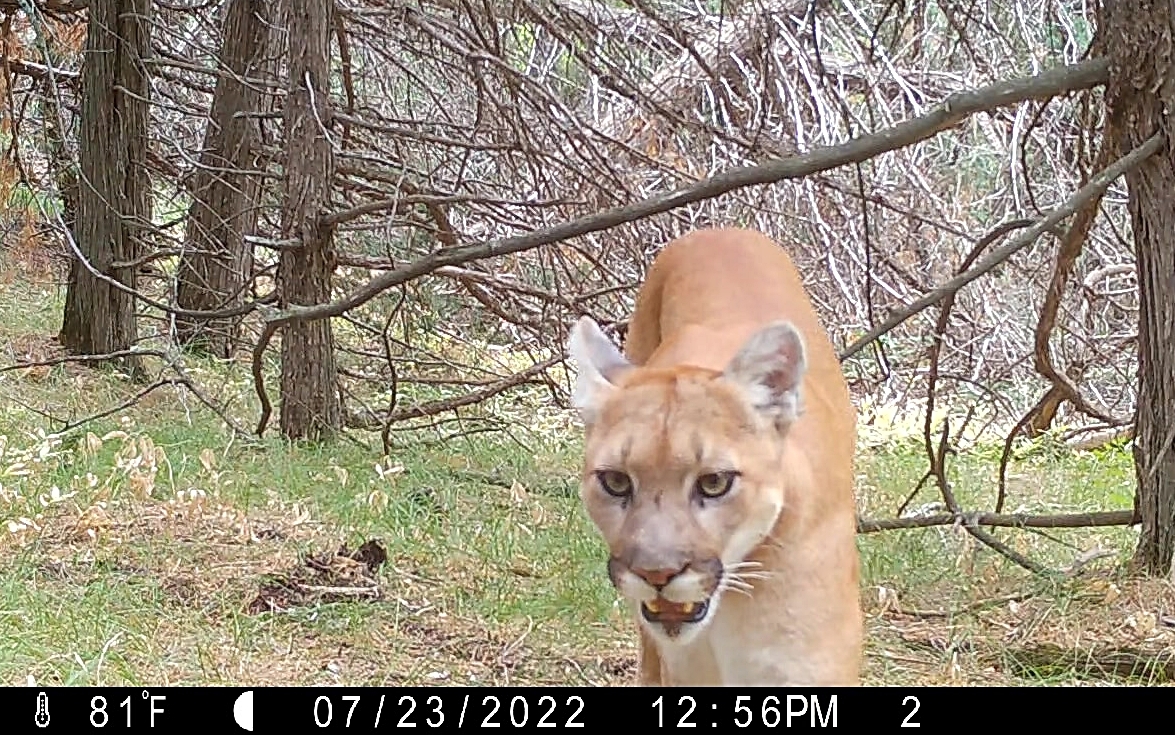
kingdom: Animalia
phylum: Chordata
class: Mammalia
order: Carnivora
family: Felidae
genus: Puma
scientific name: Puma concolor
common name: Puma
